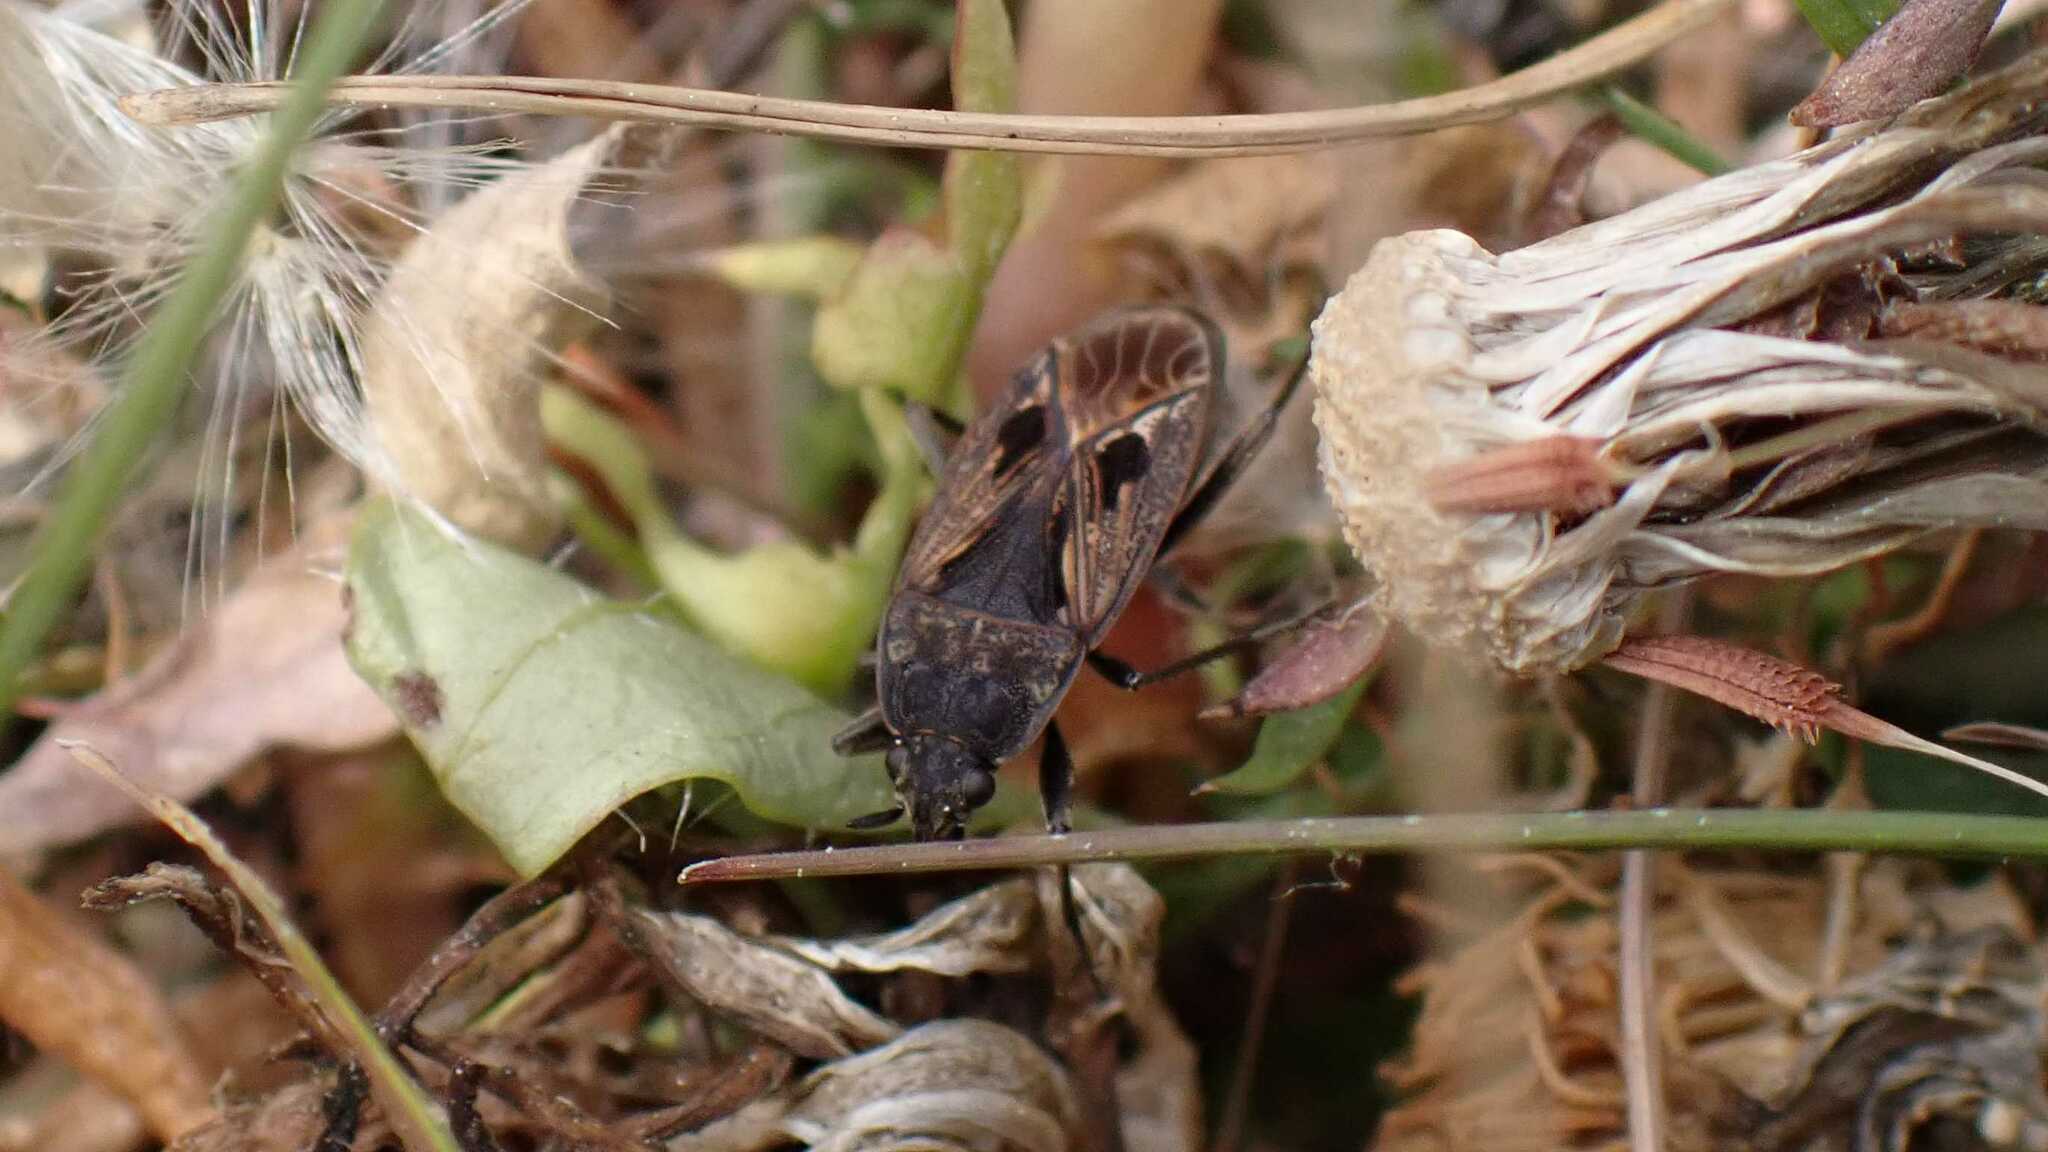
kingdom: Animalia
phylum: Arthropoda
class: Insecta
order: Hemiptera
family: Rhyparochromidae
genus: Rhyparochromus
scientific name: Rhyparochromus pini
